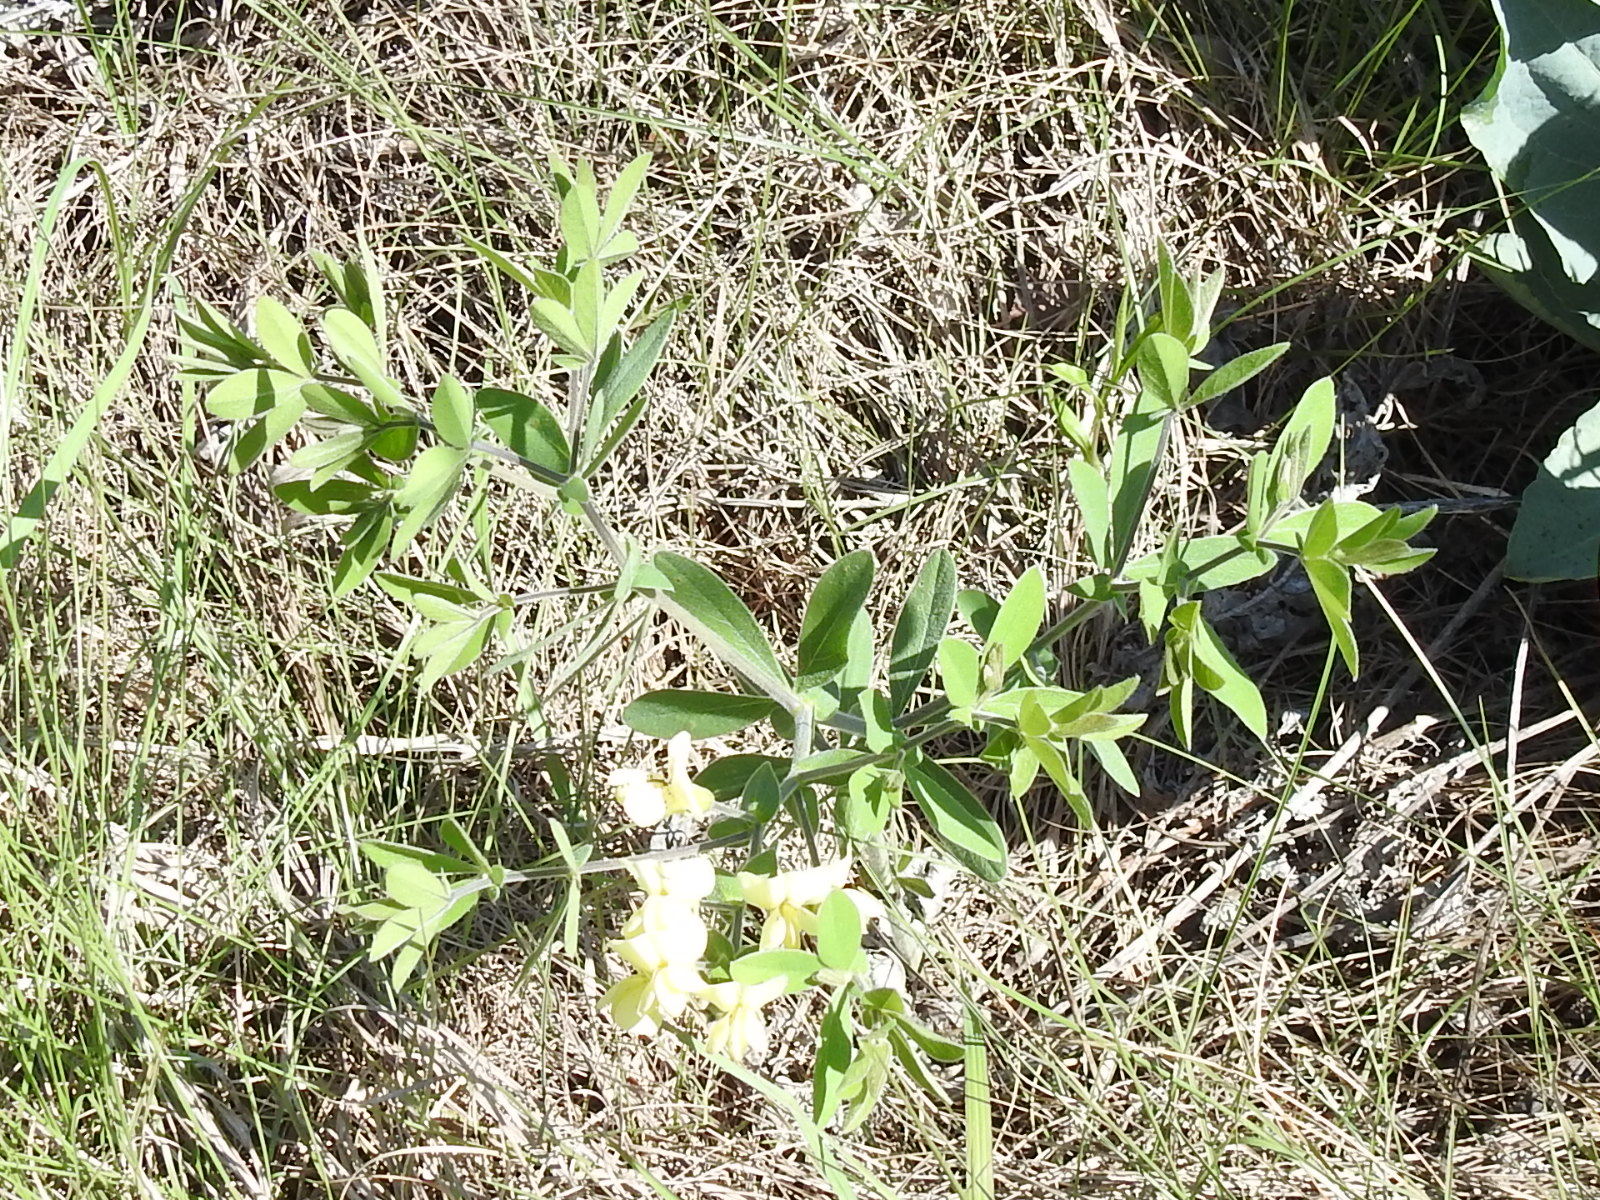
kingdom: Plantae
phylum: Tracheophyta
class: Magnoliopsida
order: Fabales
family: Fabaceae
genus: Baptisia
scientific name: Baptisia bracteata
